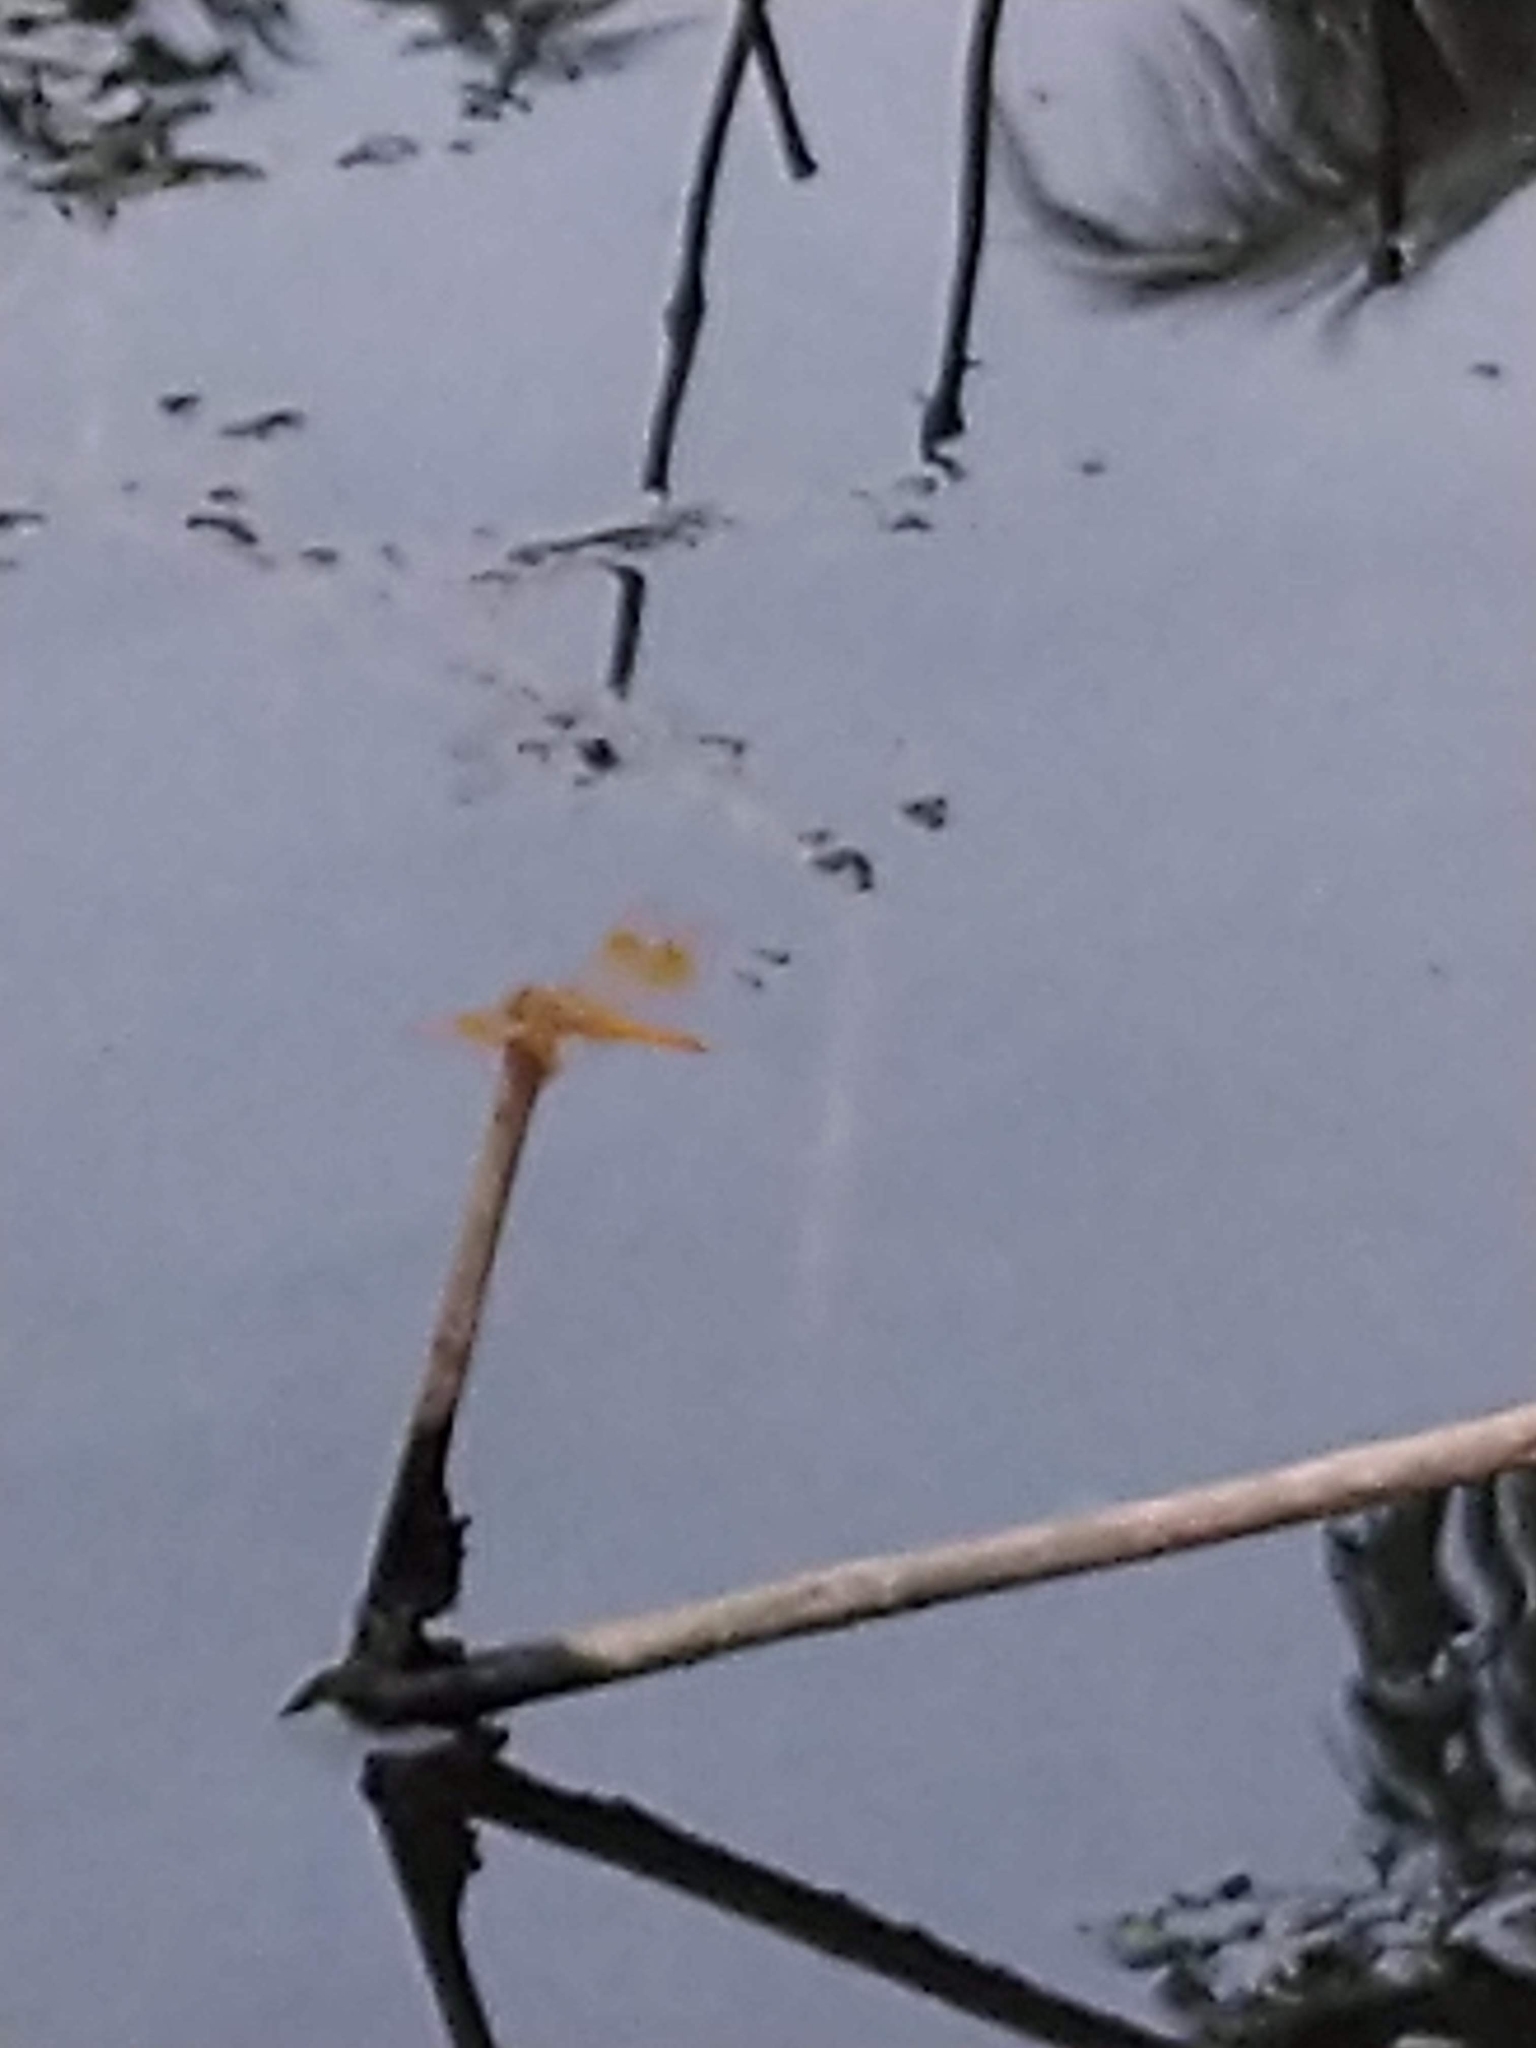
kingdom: Animalia
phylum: Arthropoda
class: Insecta
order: Odonata
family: Libellulidae
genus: Brachythemis
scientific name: Brachythemis contaminata
